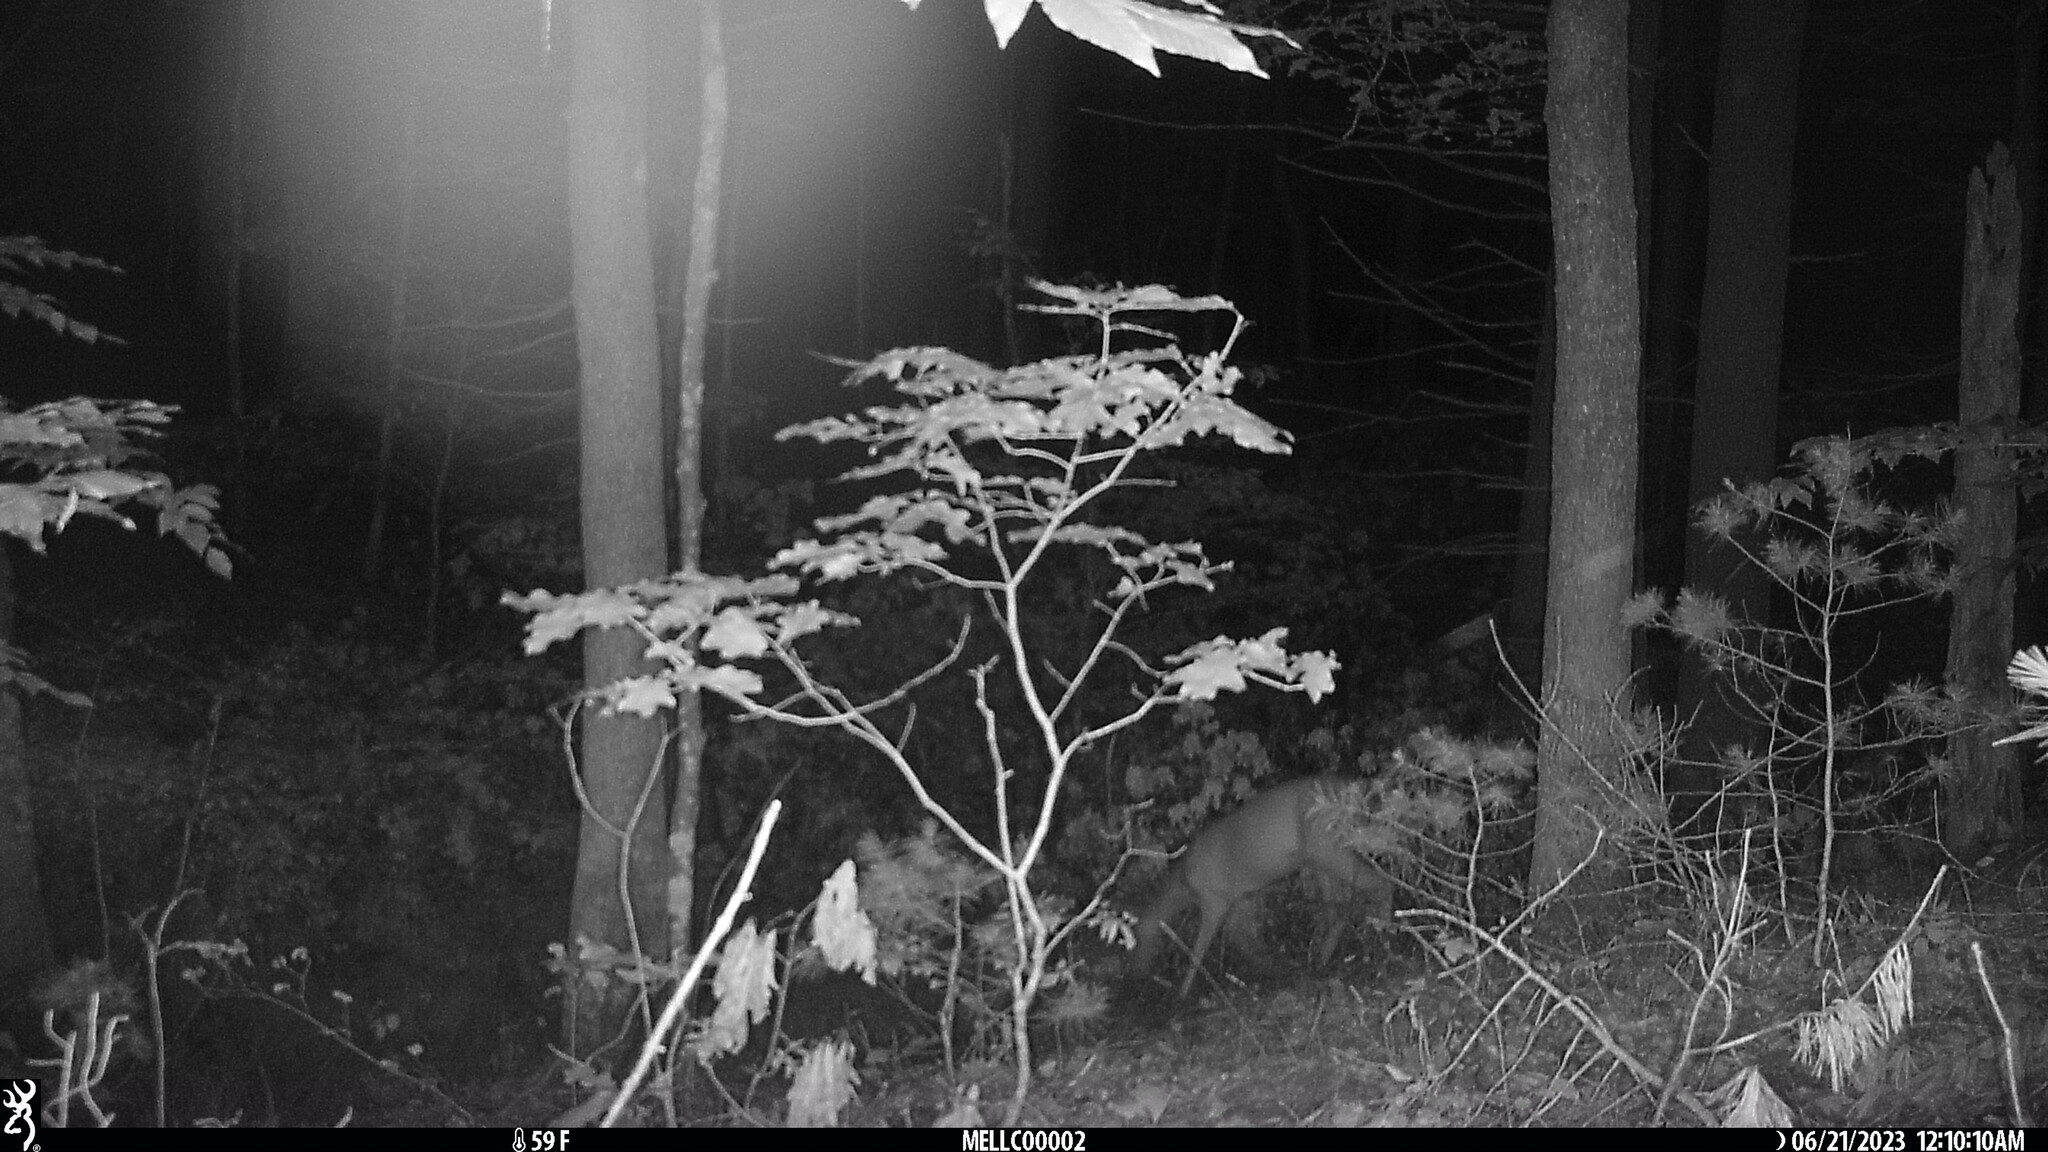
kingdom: Animalia
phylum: Chordata
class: Mammalia
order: Artiodactyla
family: Cervidae
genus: Odocoileus
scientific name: Odocoileus virginianus
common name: White-tailed deer
